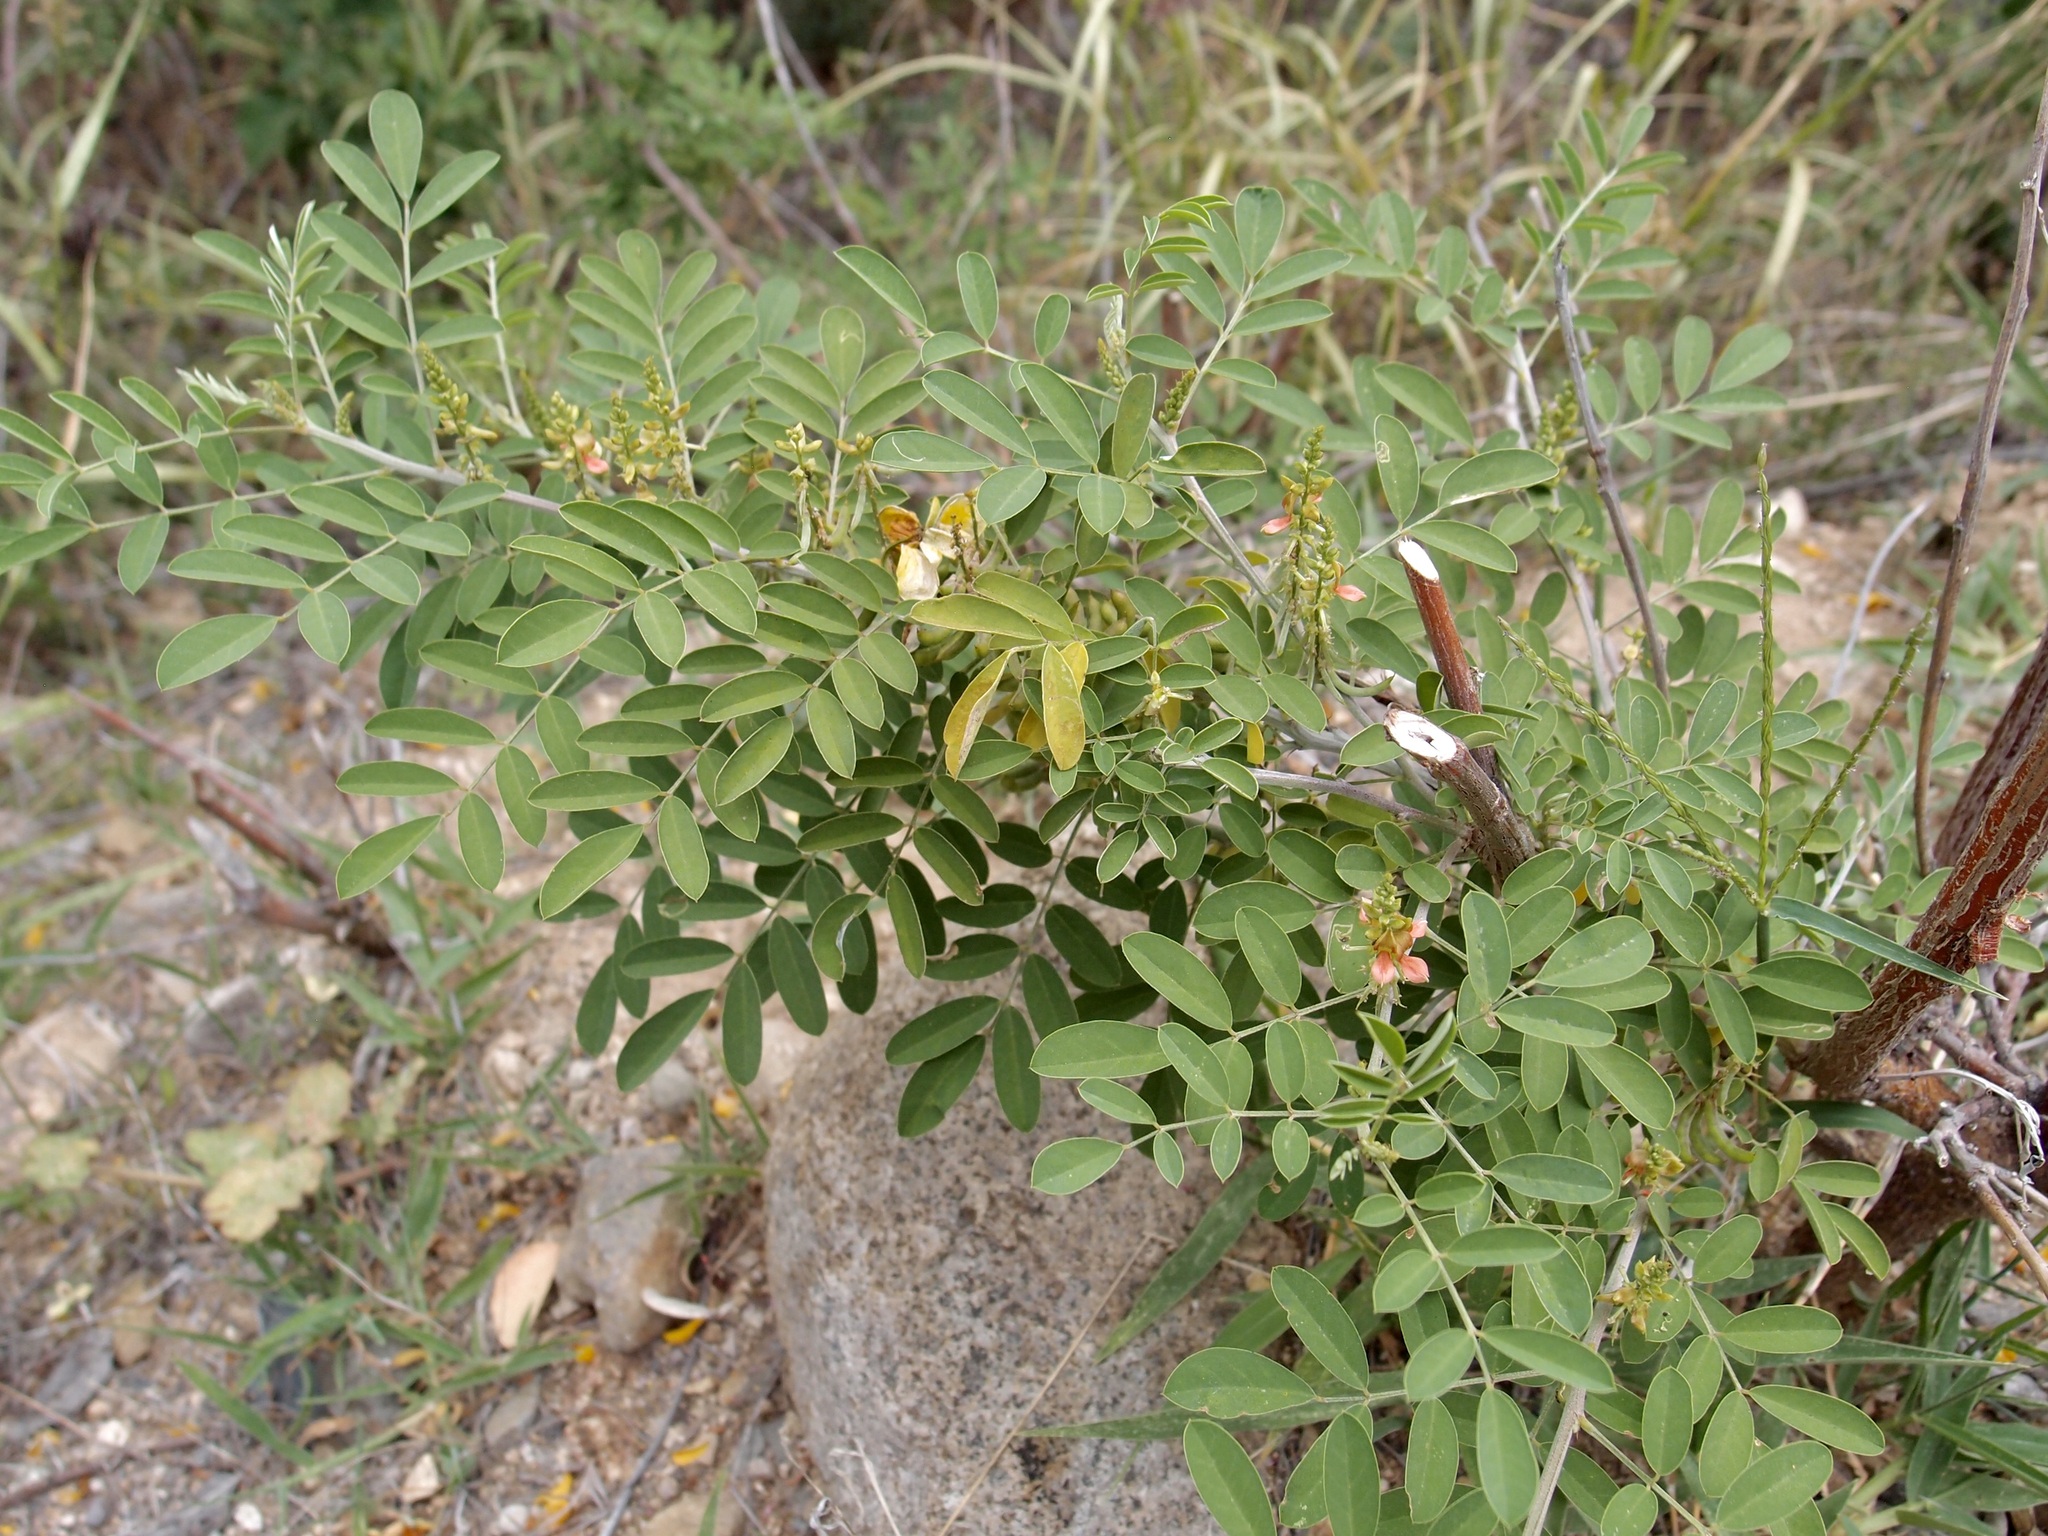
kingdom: Plantae
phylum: Tracheophyta
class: Magnoliopsida
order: Fabales
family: Fabaceae
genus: Indigofera
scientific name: Indigofera suffruticosa
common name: Anil de pasto
